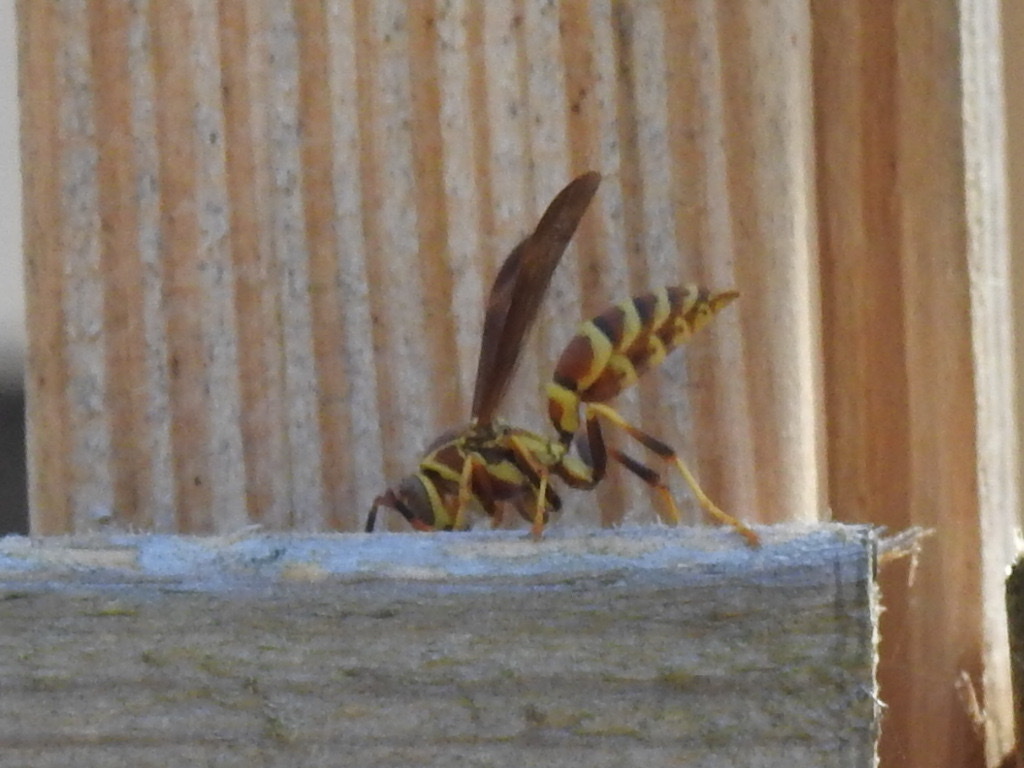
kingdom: Animalia
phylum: Arthropoda
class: Insecta
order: Hymenoptera
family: Eumenidae
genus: Polistes
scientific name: Polistes exclamans
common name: Paper wasp
